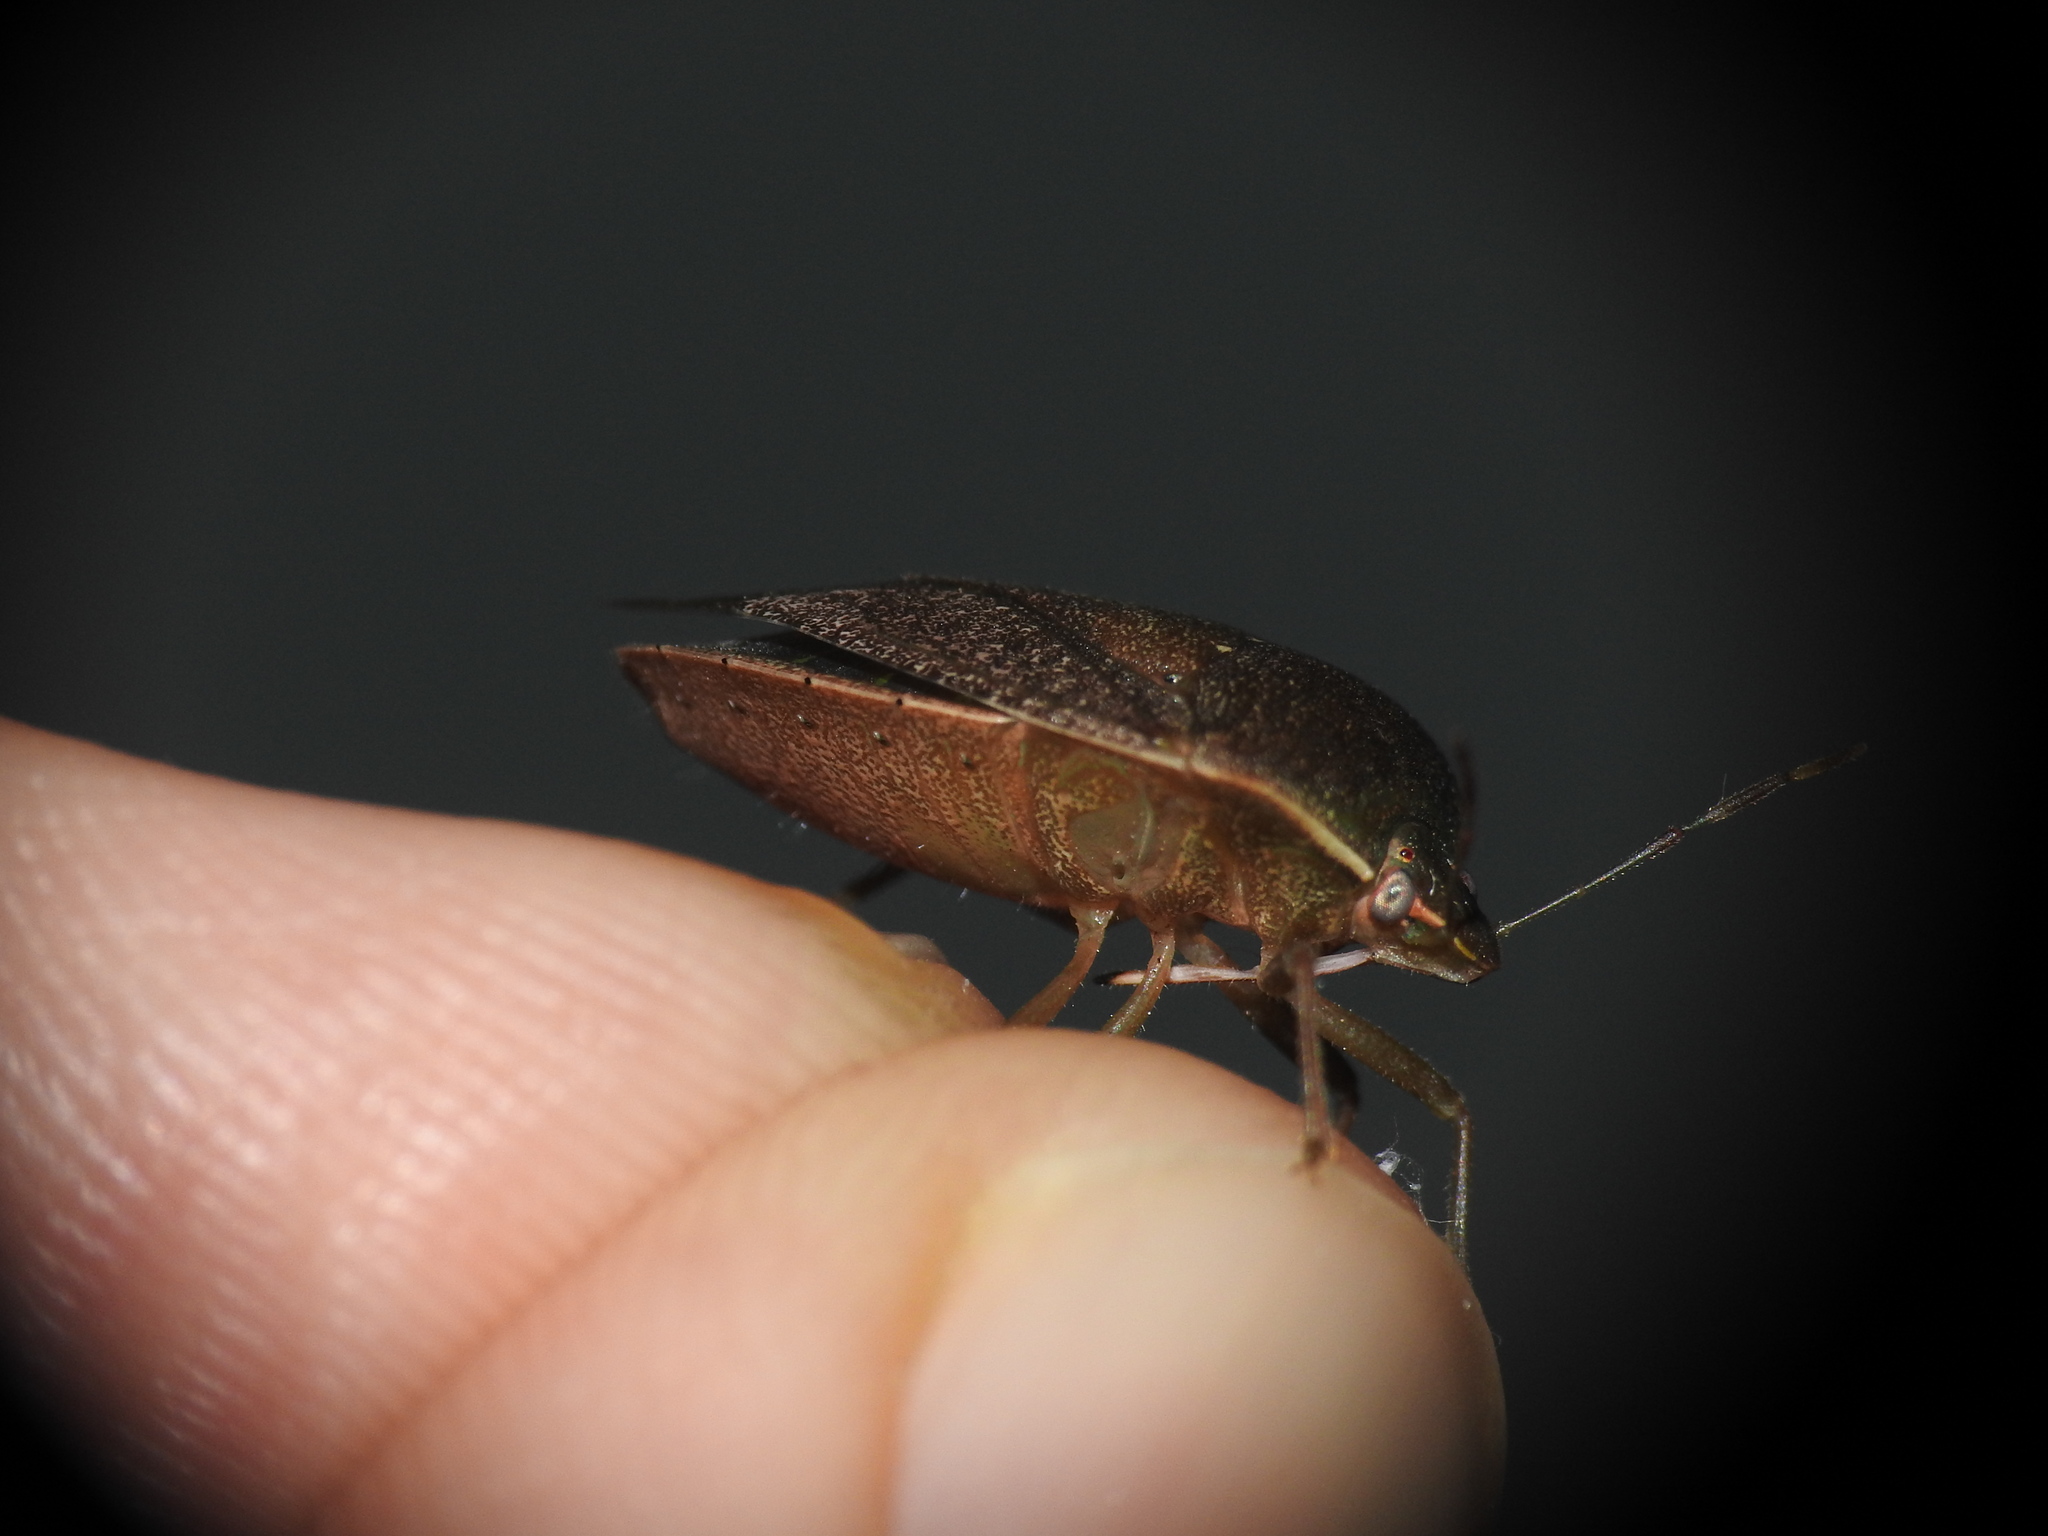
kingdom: Animalia
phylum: Arthropoda
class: Insecta
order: Hemiptera
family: Pentatomidae
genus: Nezara
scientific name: Nezara viridula
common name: Southern green stink bug
